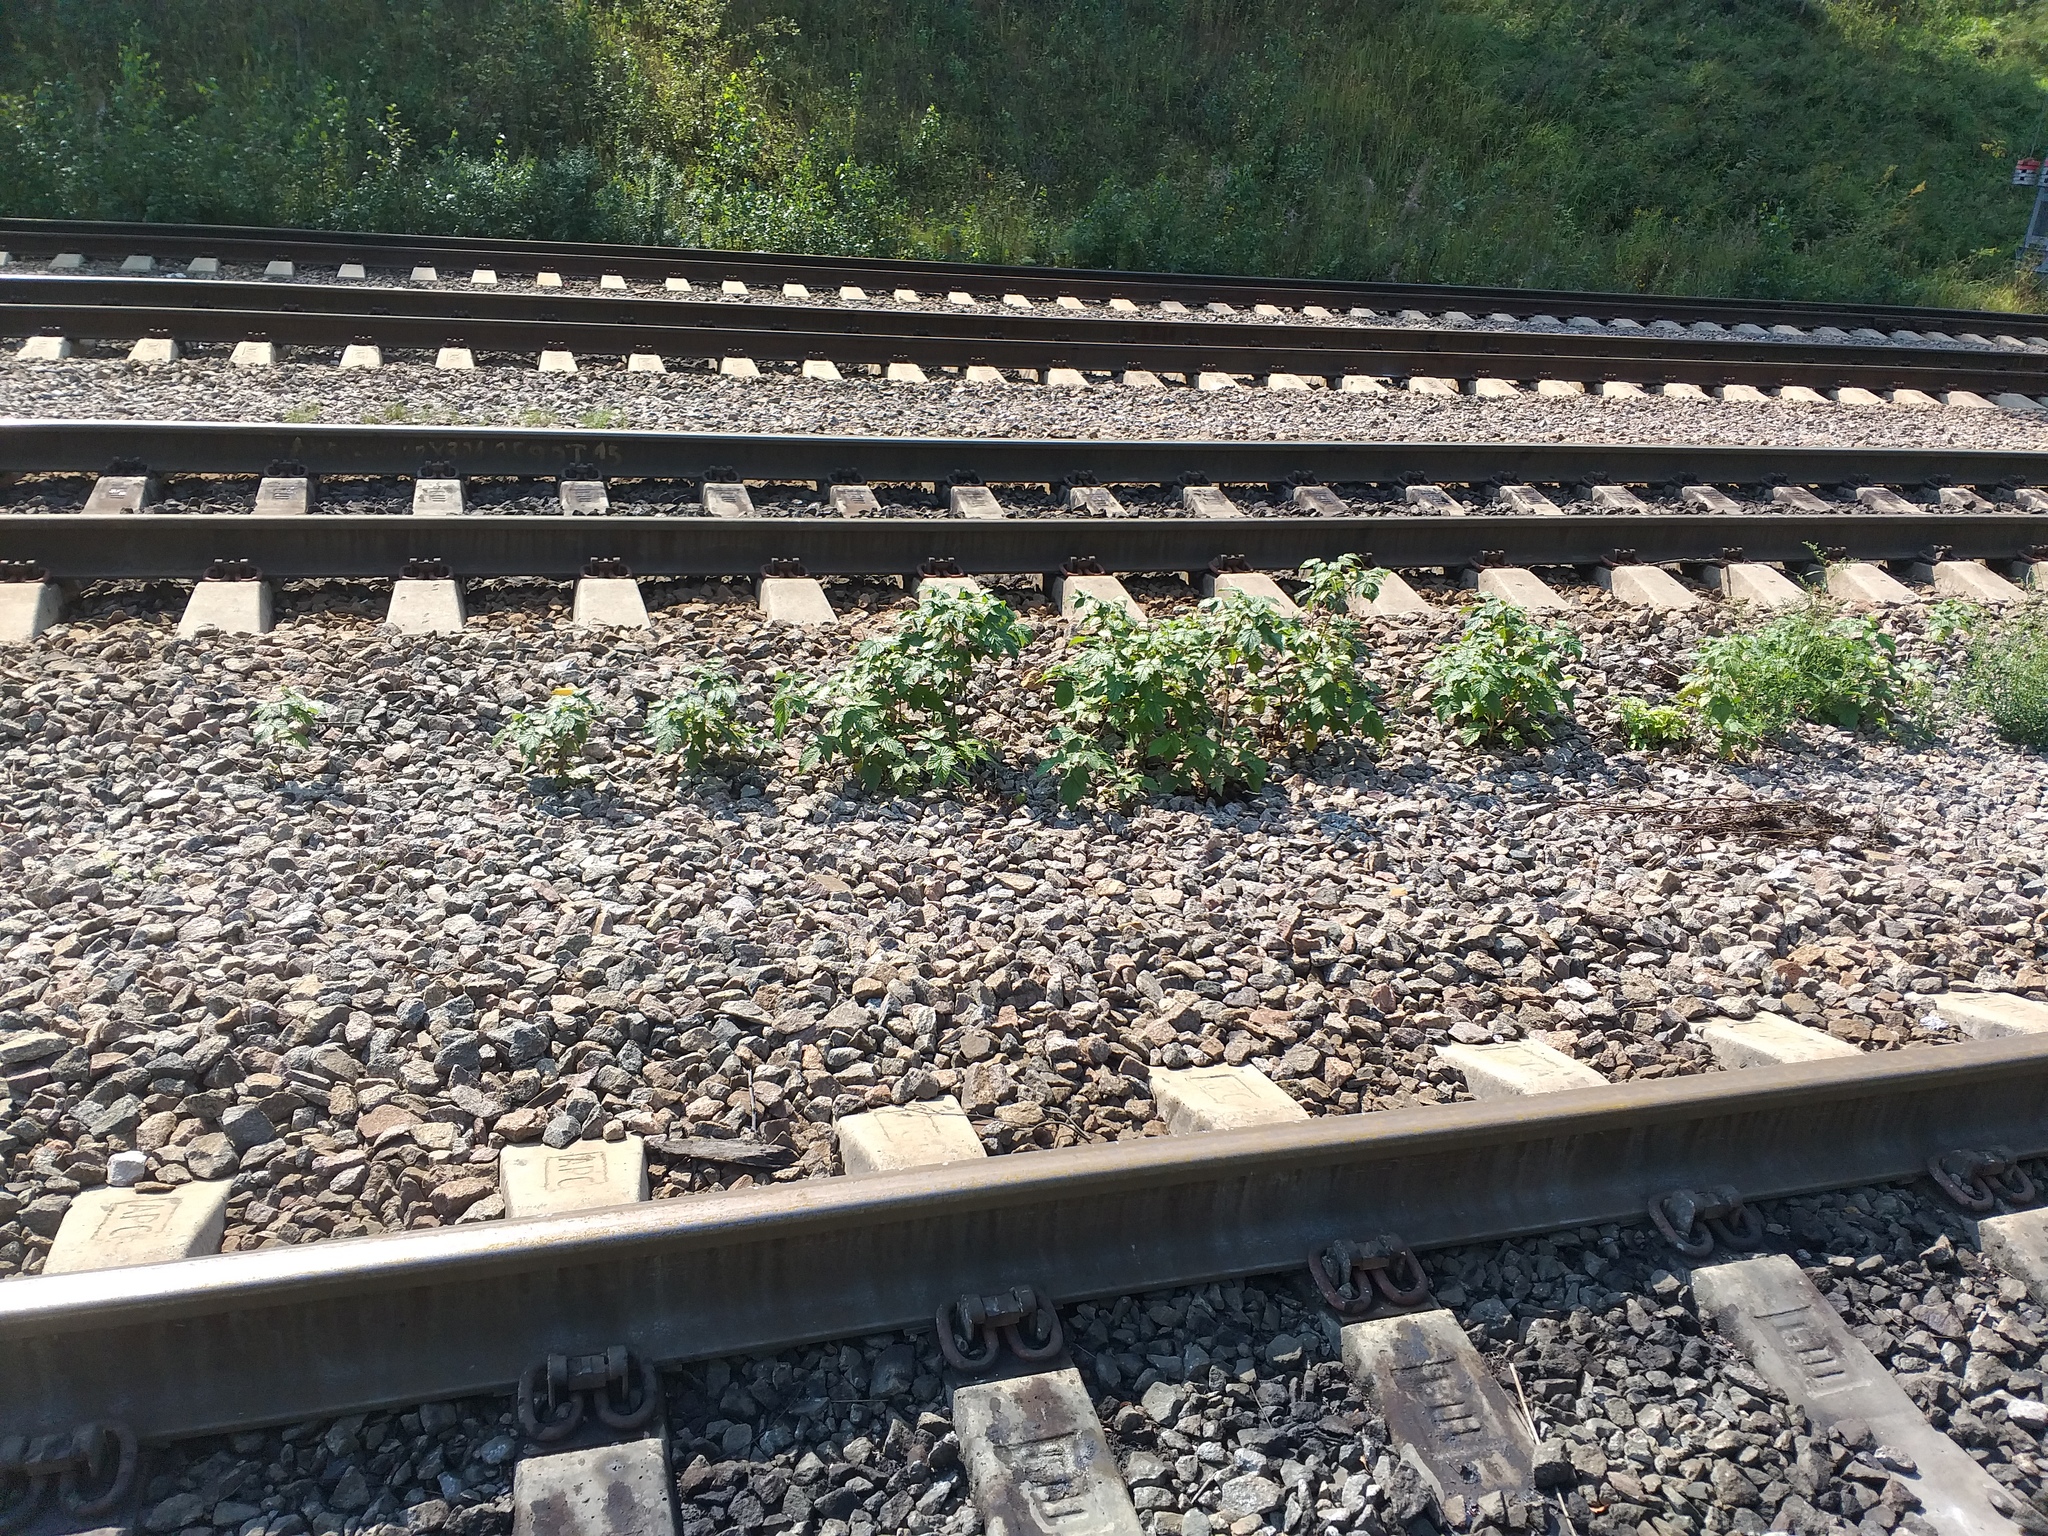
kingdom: Plantae
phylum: Tracheophyta
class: Magnoliopsida
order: Rosales
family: Rosaceae
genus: Rubus
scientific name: Rubus idaeus
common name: Raspberry
